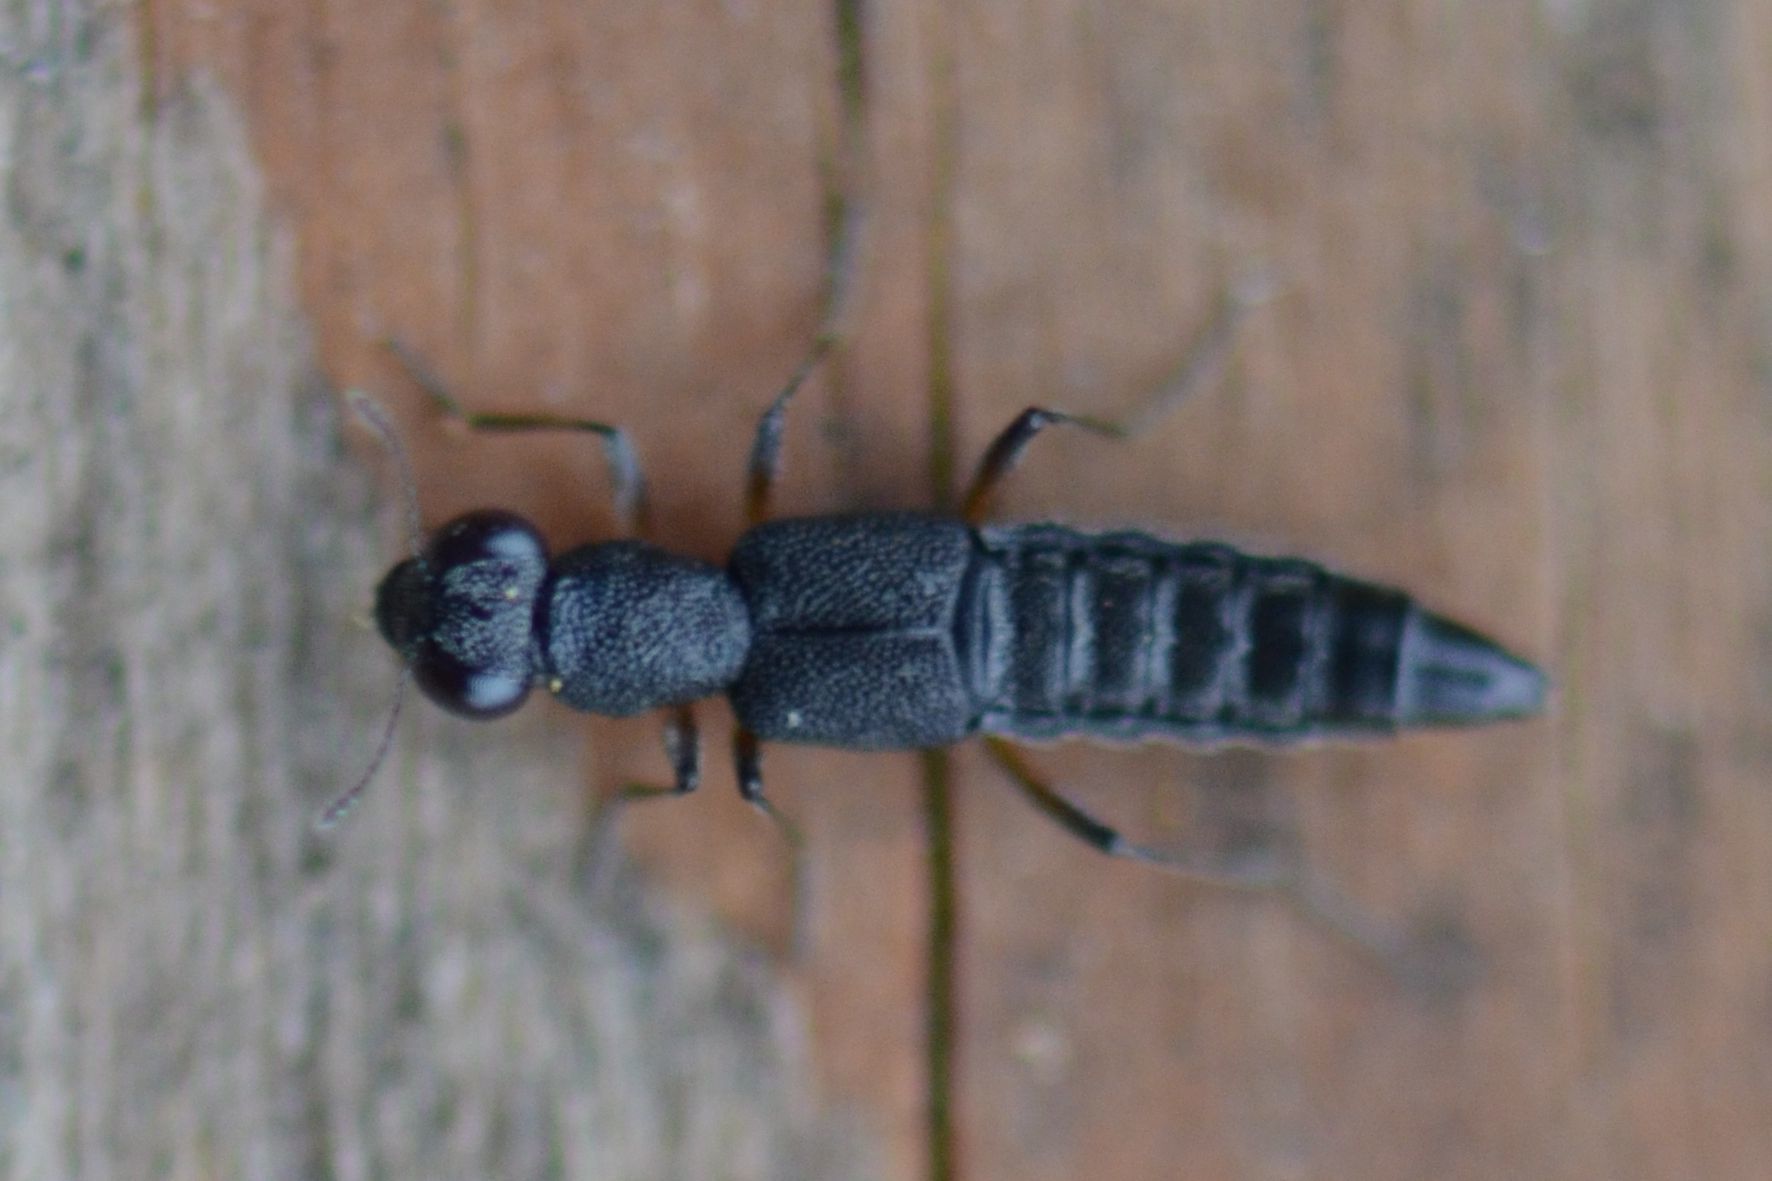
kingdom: Animalia
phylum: Arthropoda
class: Insecta
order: Coleoptera
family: Staphylinidae
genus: Stenus
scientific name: Stenus clavicornis
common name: Staph beetle
